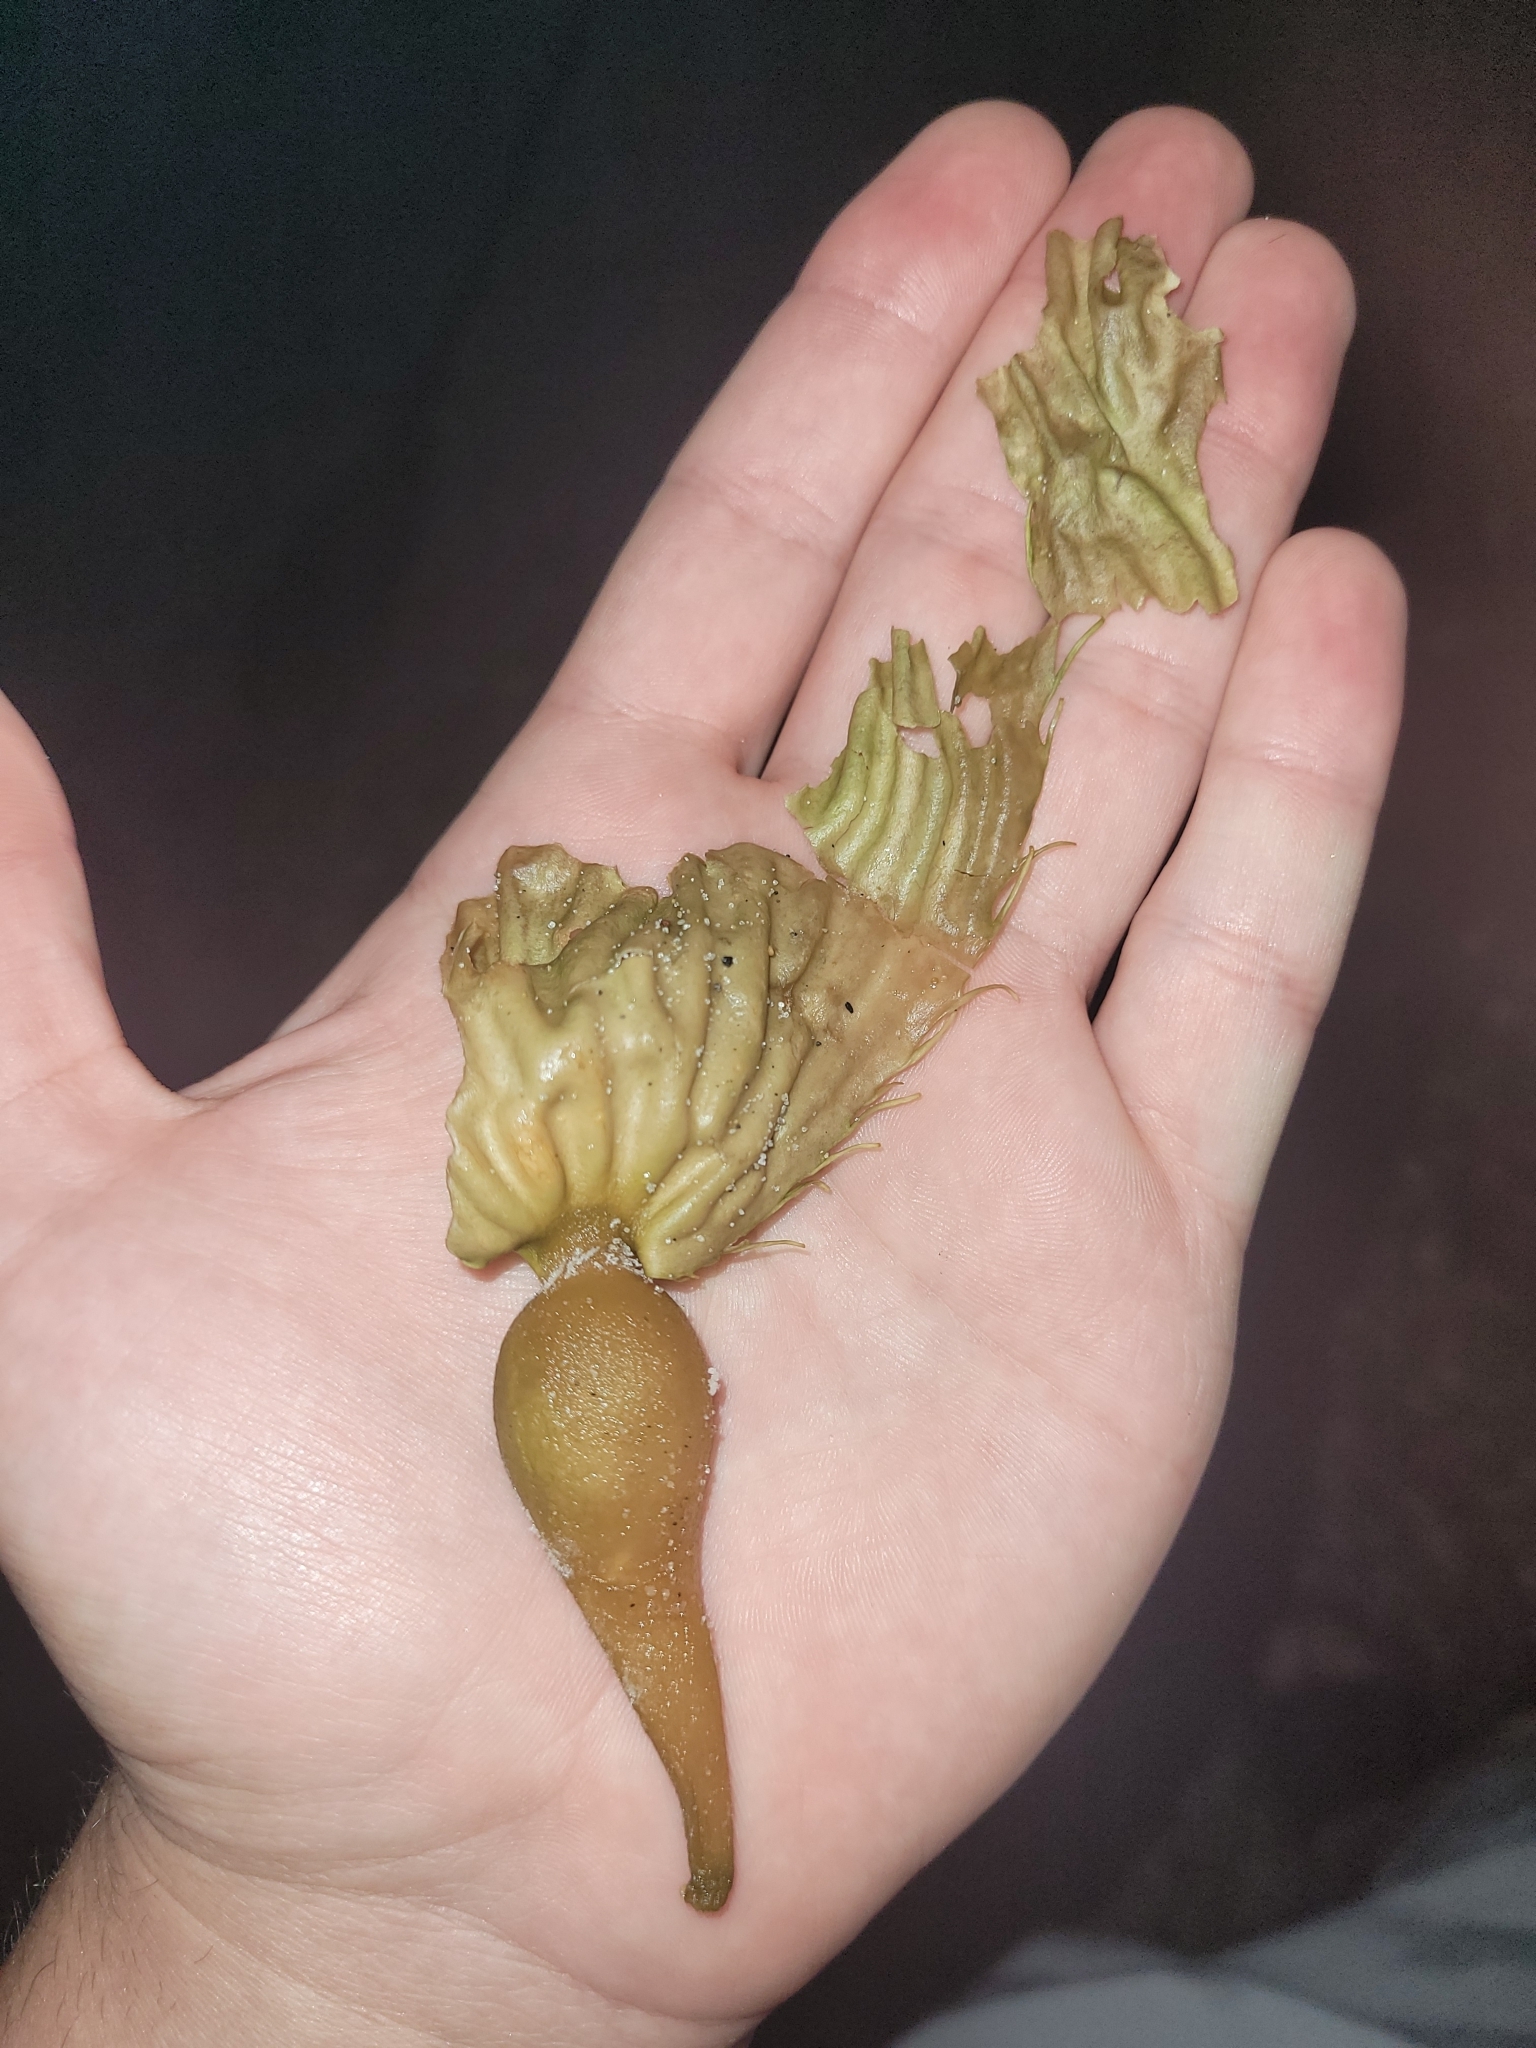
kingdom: Chromista
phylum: Ochrophyta
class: Phaeophyceae
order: Laminariales
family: Laminariaceae
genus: Macrocystis
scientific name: Macrocystis pyrifera
